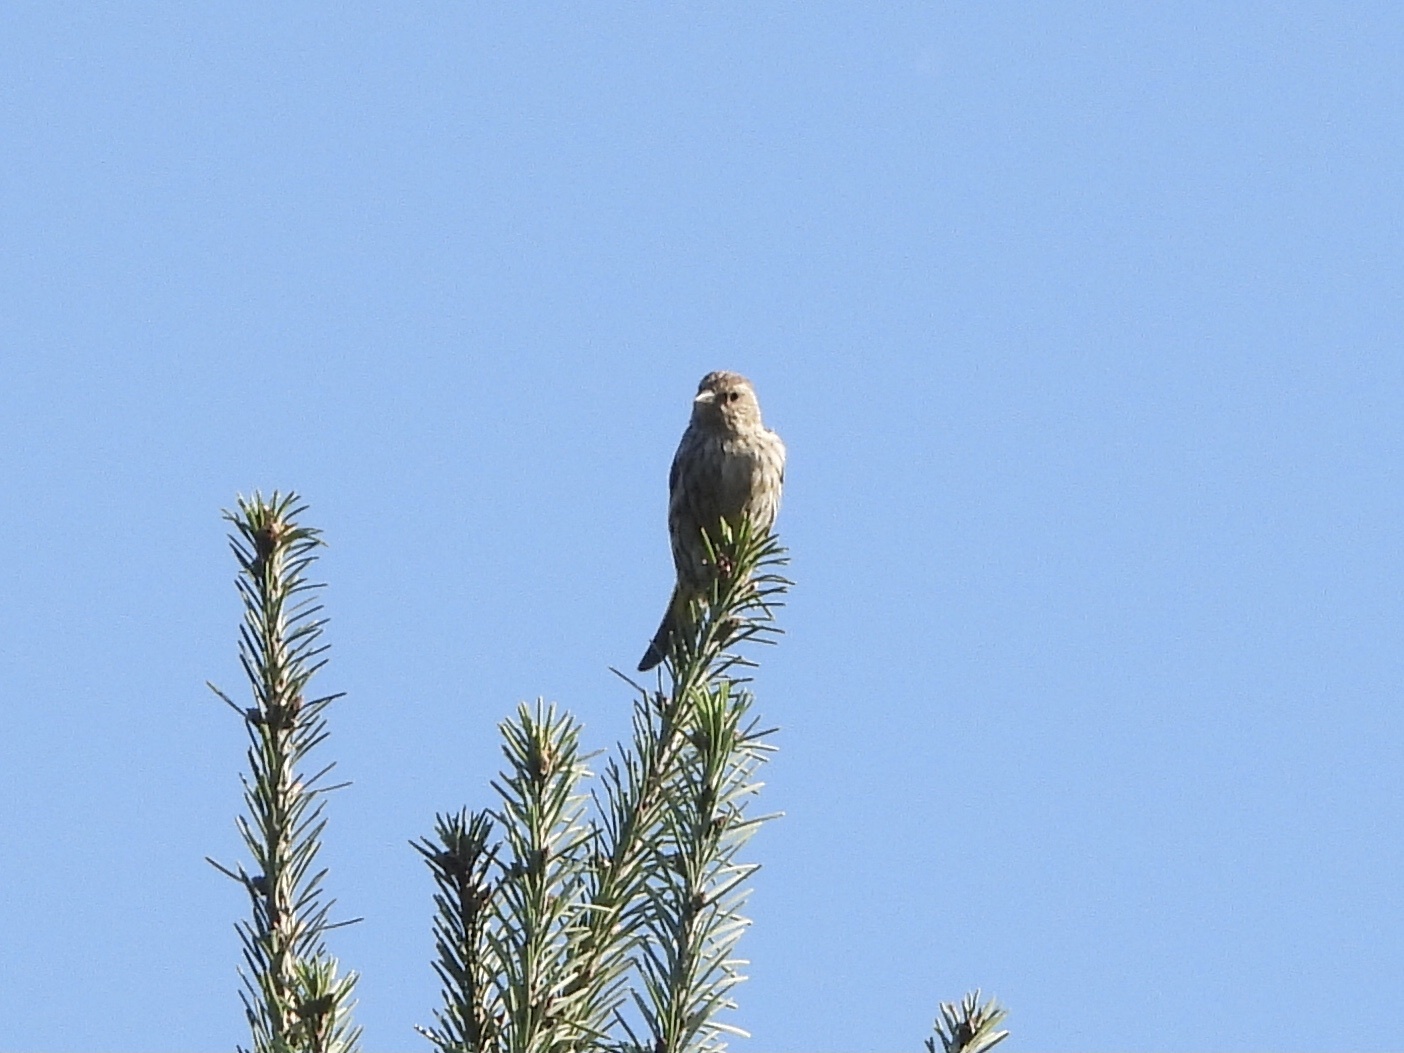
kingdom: Animalia
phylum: Chordata
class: Aves
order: Passeriformes
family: Fringillidae
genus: Spinus
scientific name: Spinus pinus
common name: Pine siskin
